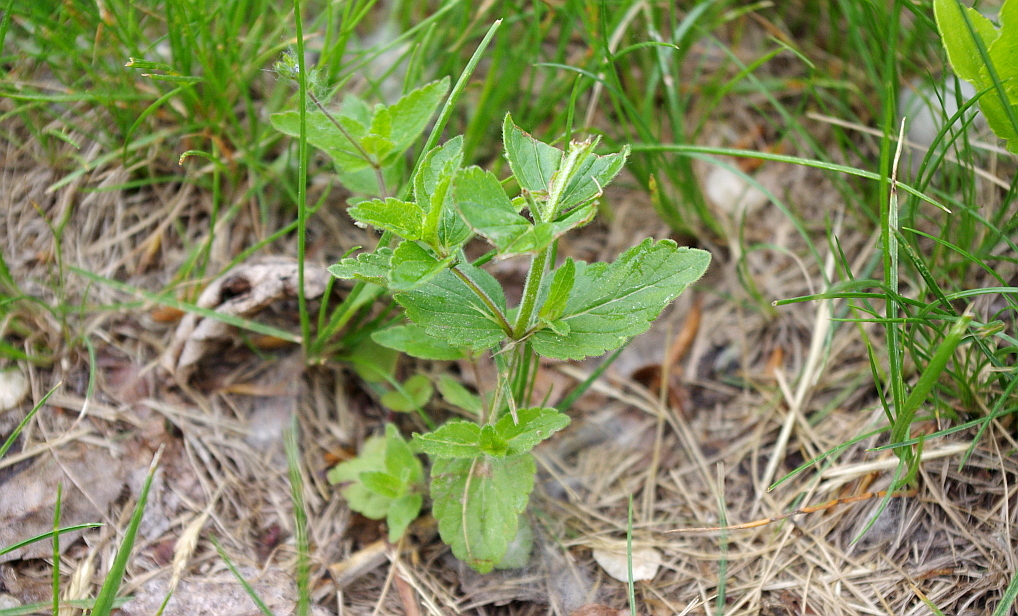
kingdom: Plantae
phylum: Tracheophyta
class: Magnoliopsida
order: Lamiales
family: Plantaginaceae
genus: Veronica
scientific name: Veronica chamaedrys
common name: Germander speedwell
